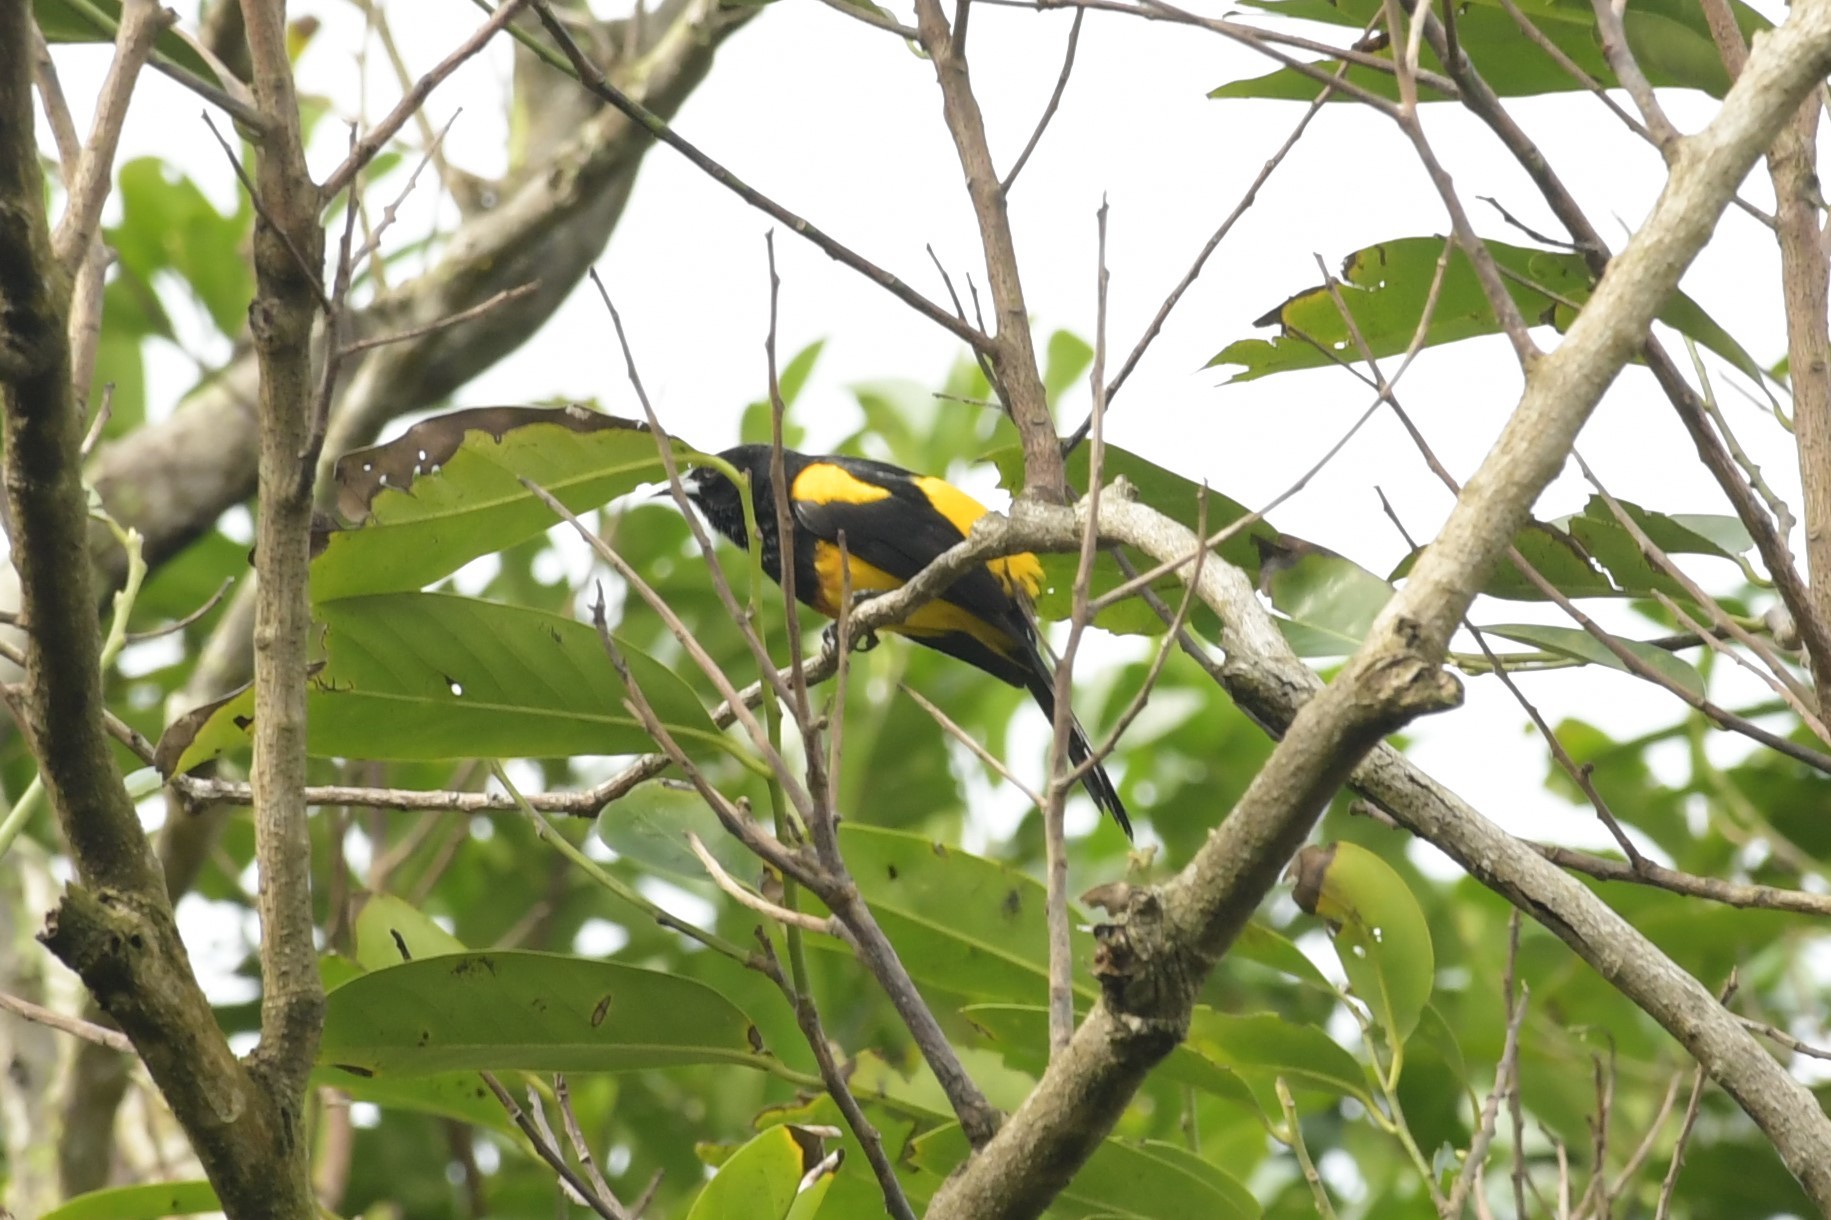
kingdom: Animalia
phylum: Chordata
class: Aves
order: Passeriformes
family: Icteridae
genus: Icterus
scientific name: Icterus prosthemelas
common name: Black-cowled oriole
